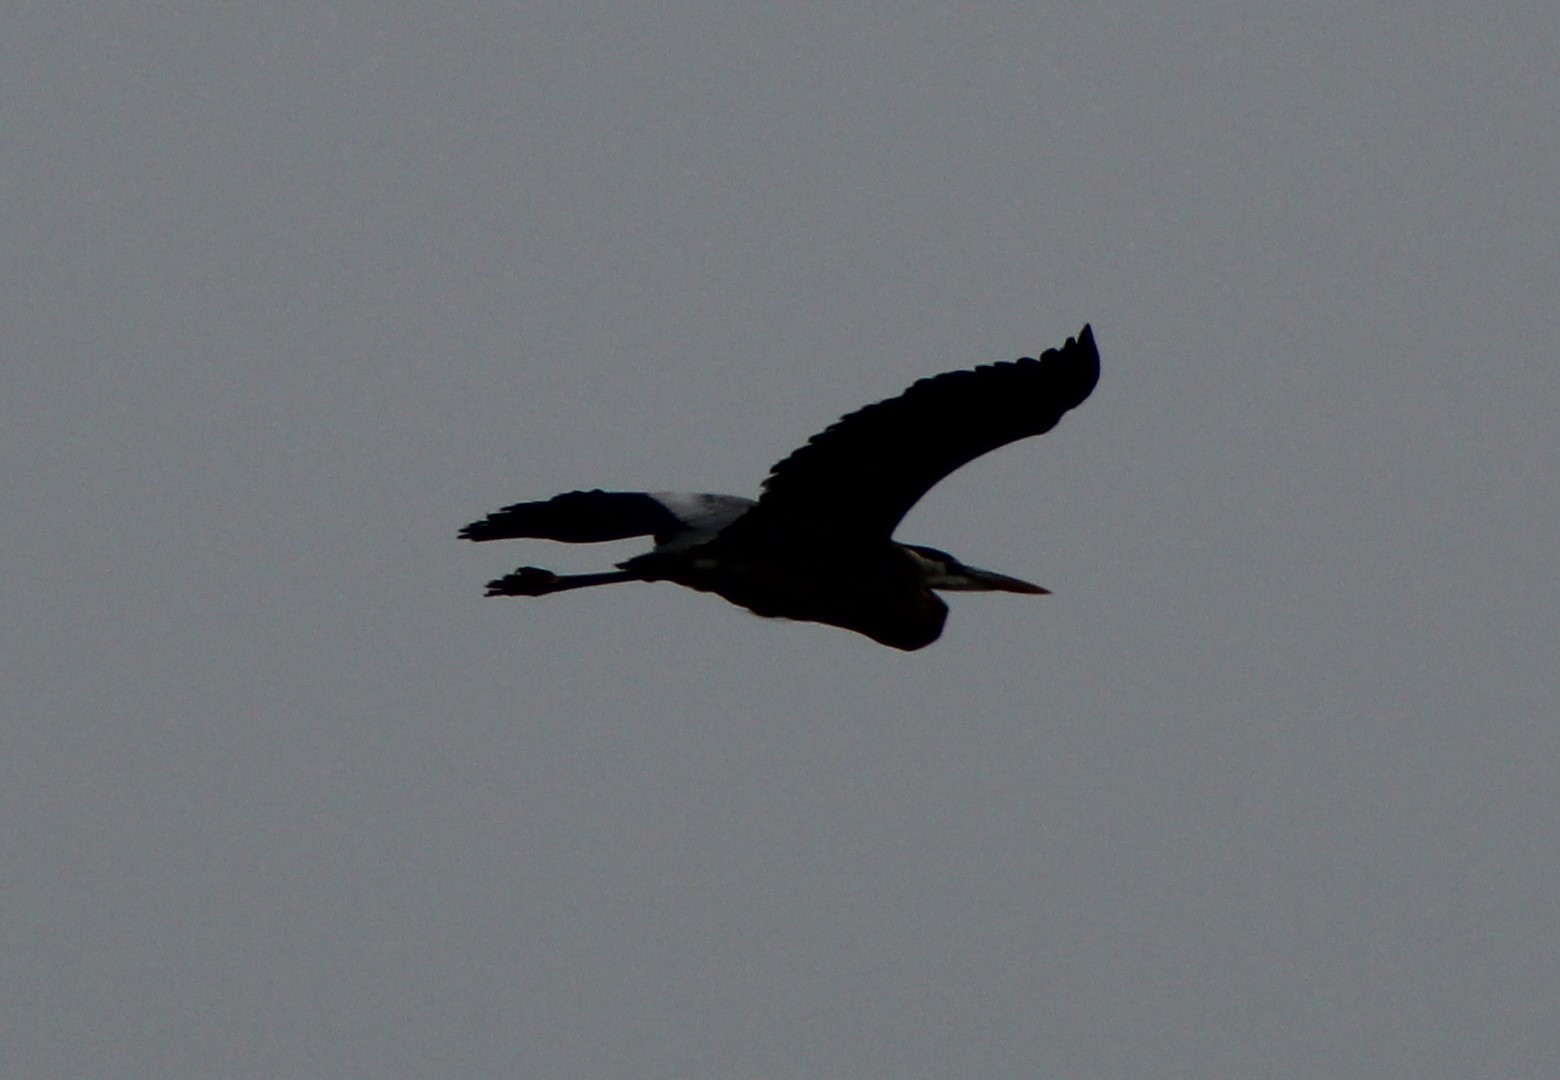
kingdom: Animalia
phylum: Chordata
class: Aves
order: Pelecaniformes
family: Ardeidae
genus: Ardea
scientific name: Ardea herodias
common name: Great blue heron
